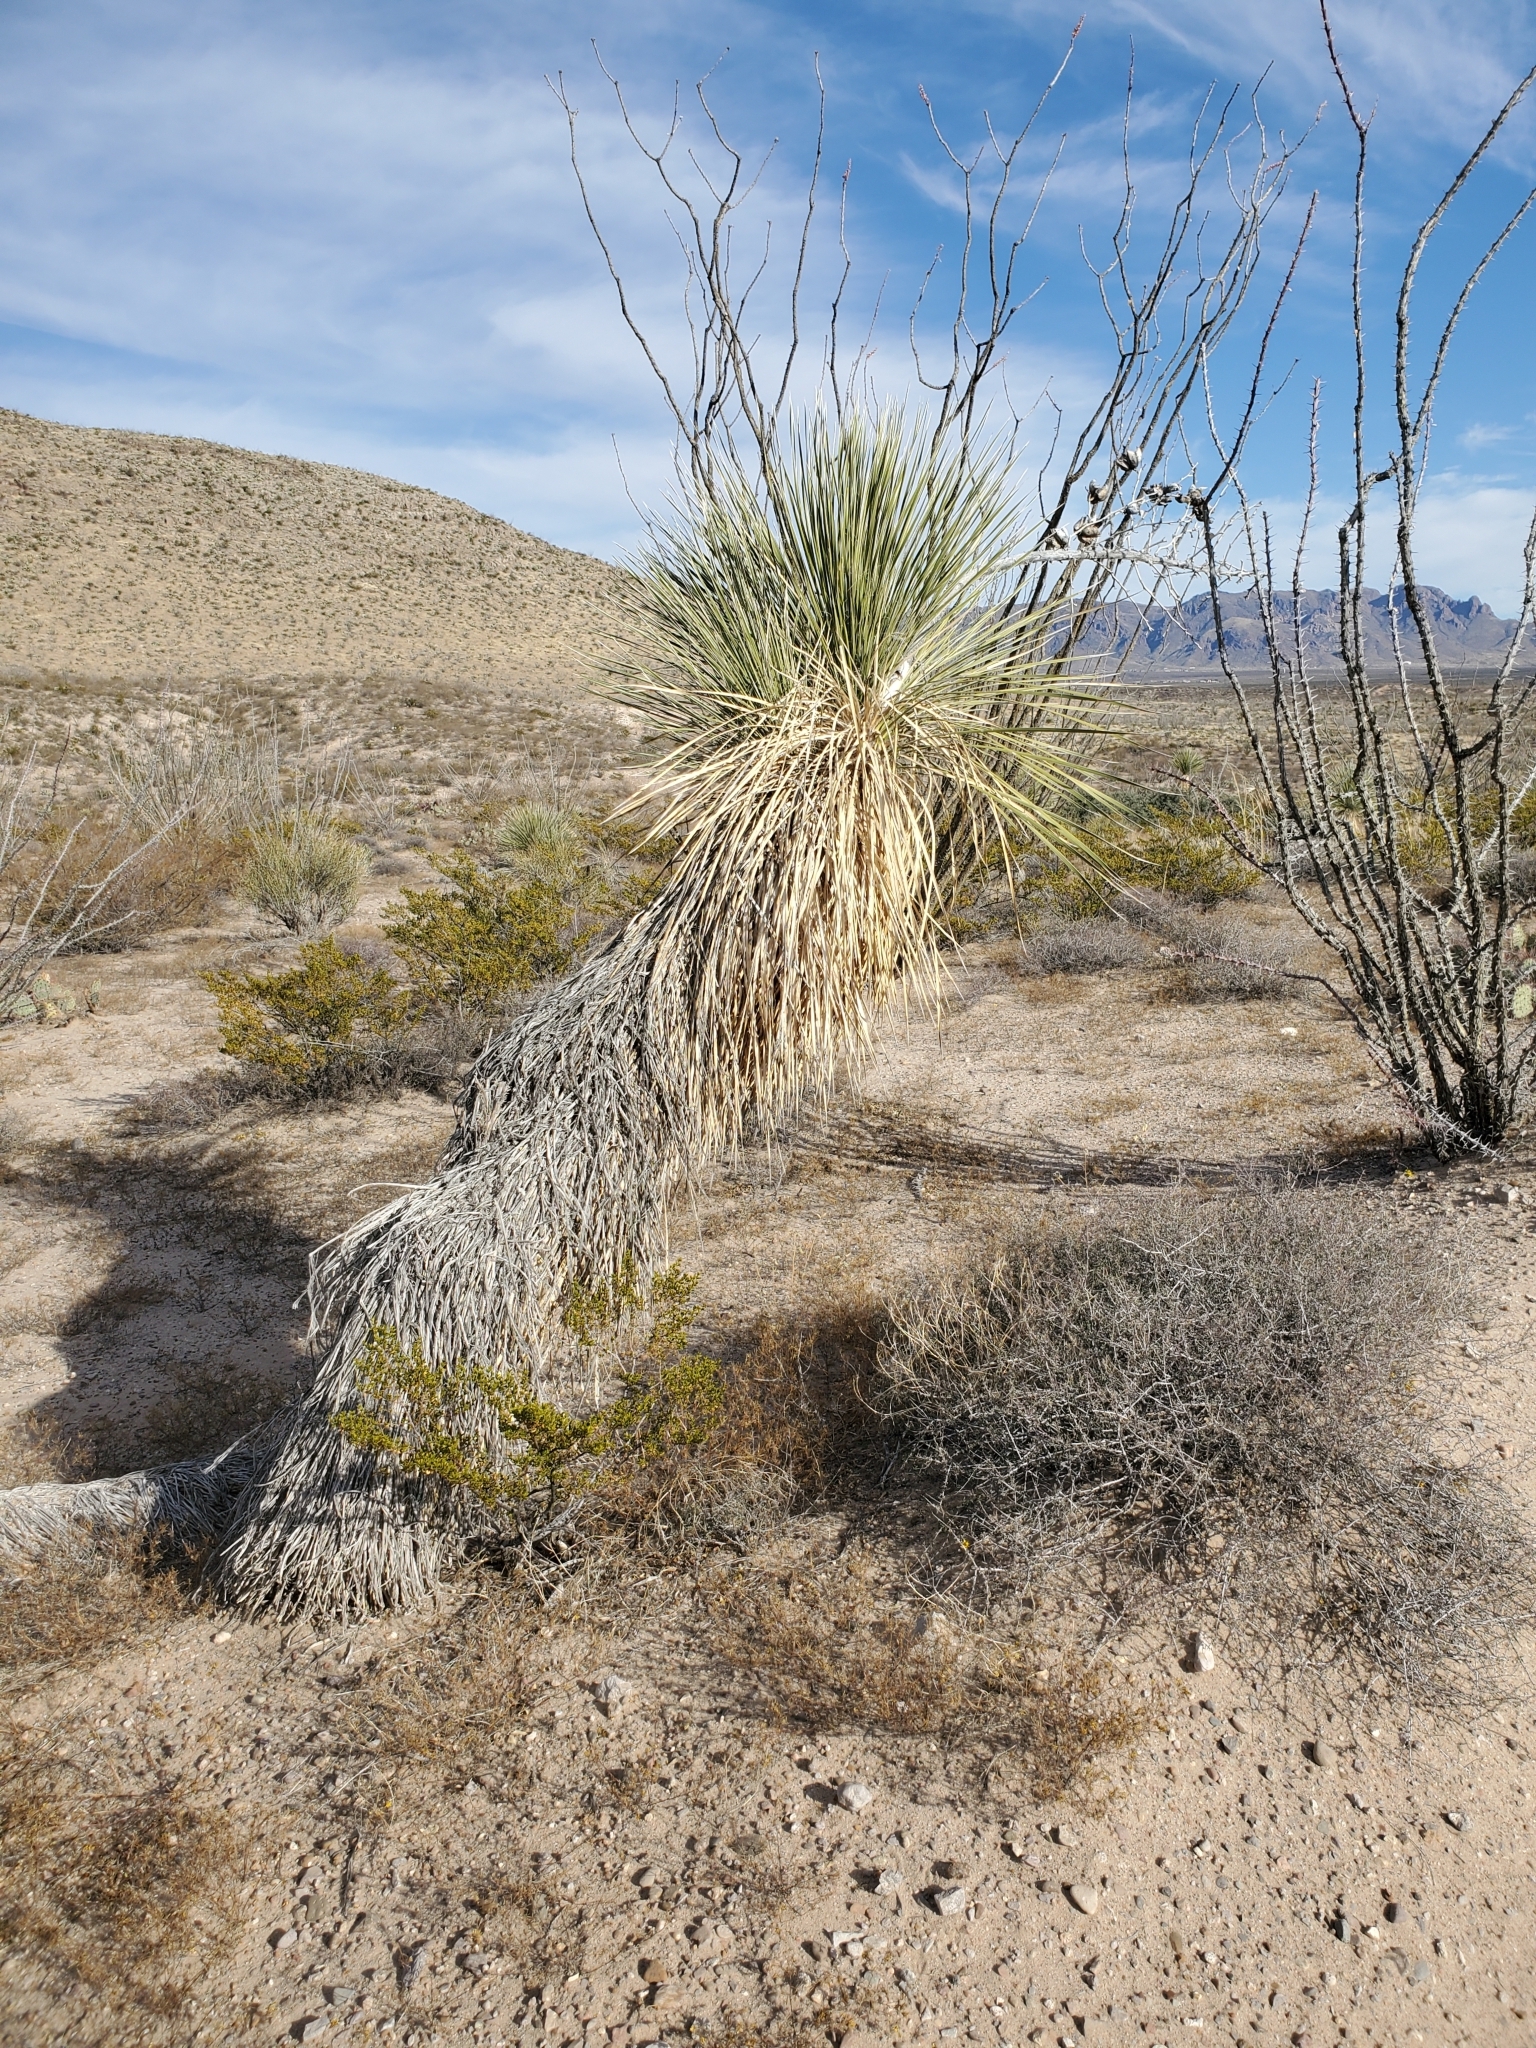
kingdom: Plantae
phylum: Tracheophyta
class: Liliopsida
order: Asparagales
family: Asparagaceae
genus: Yucca
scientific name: Yucca elata
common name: Palmella
